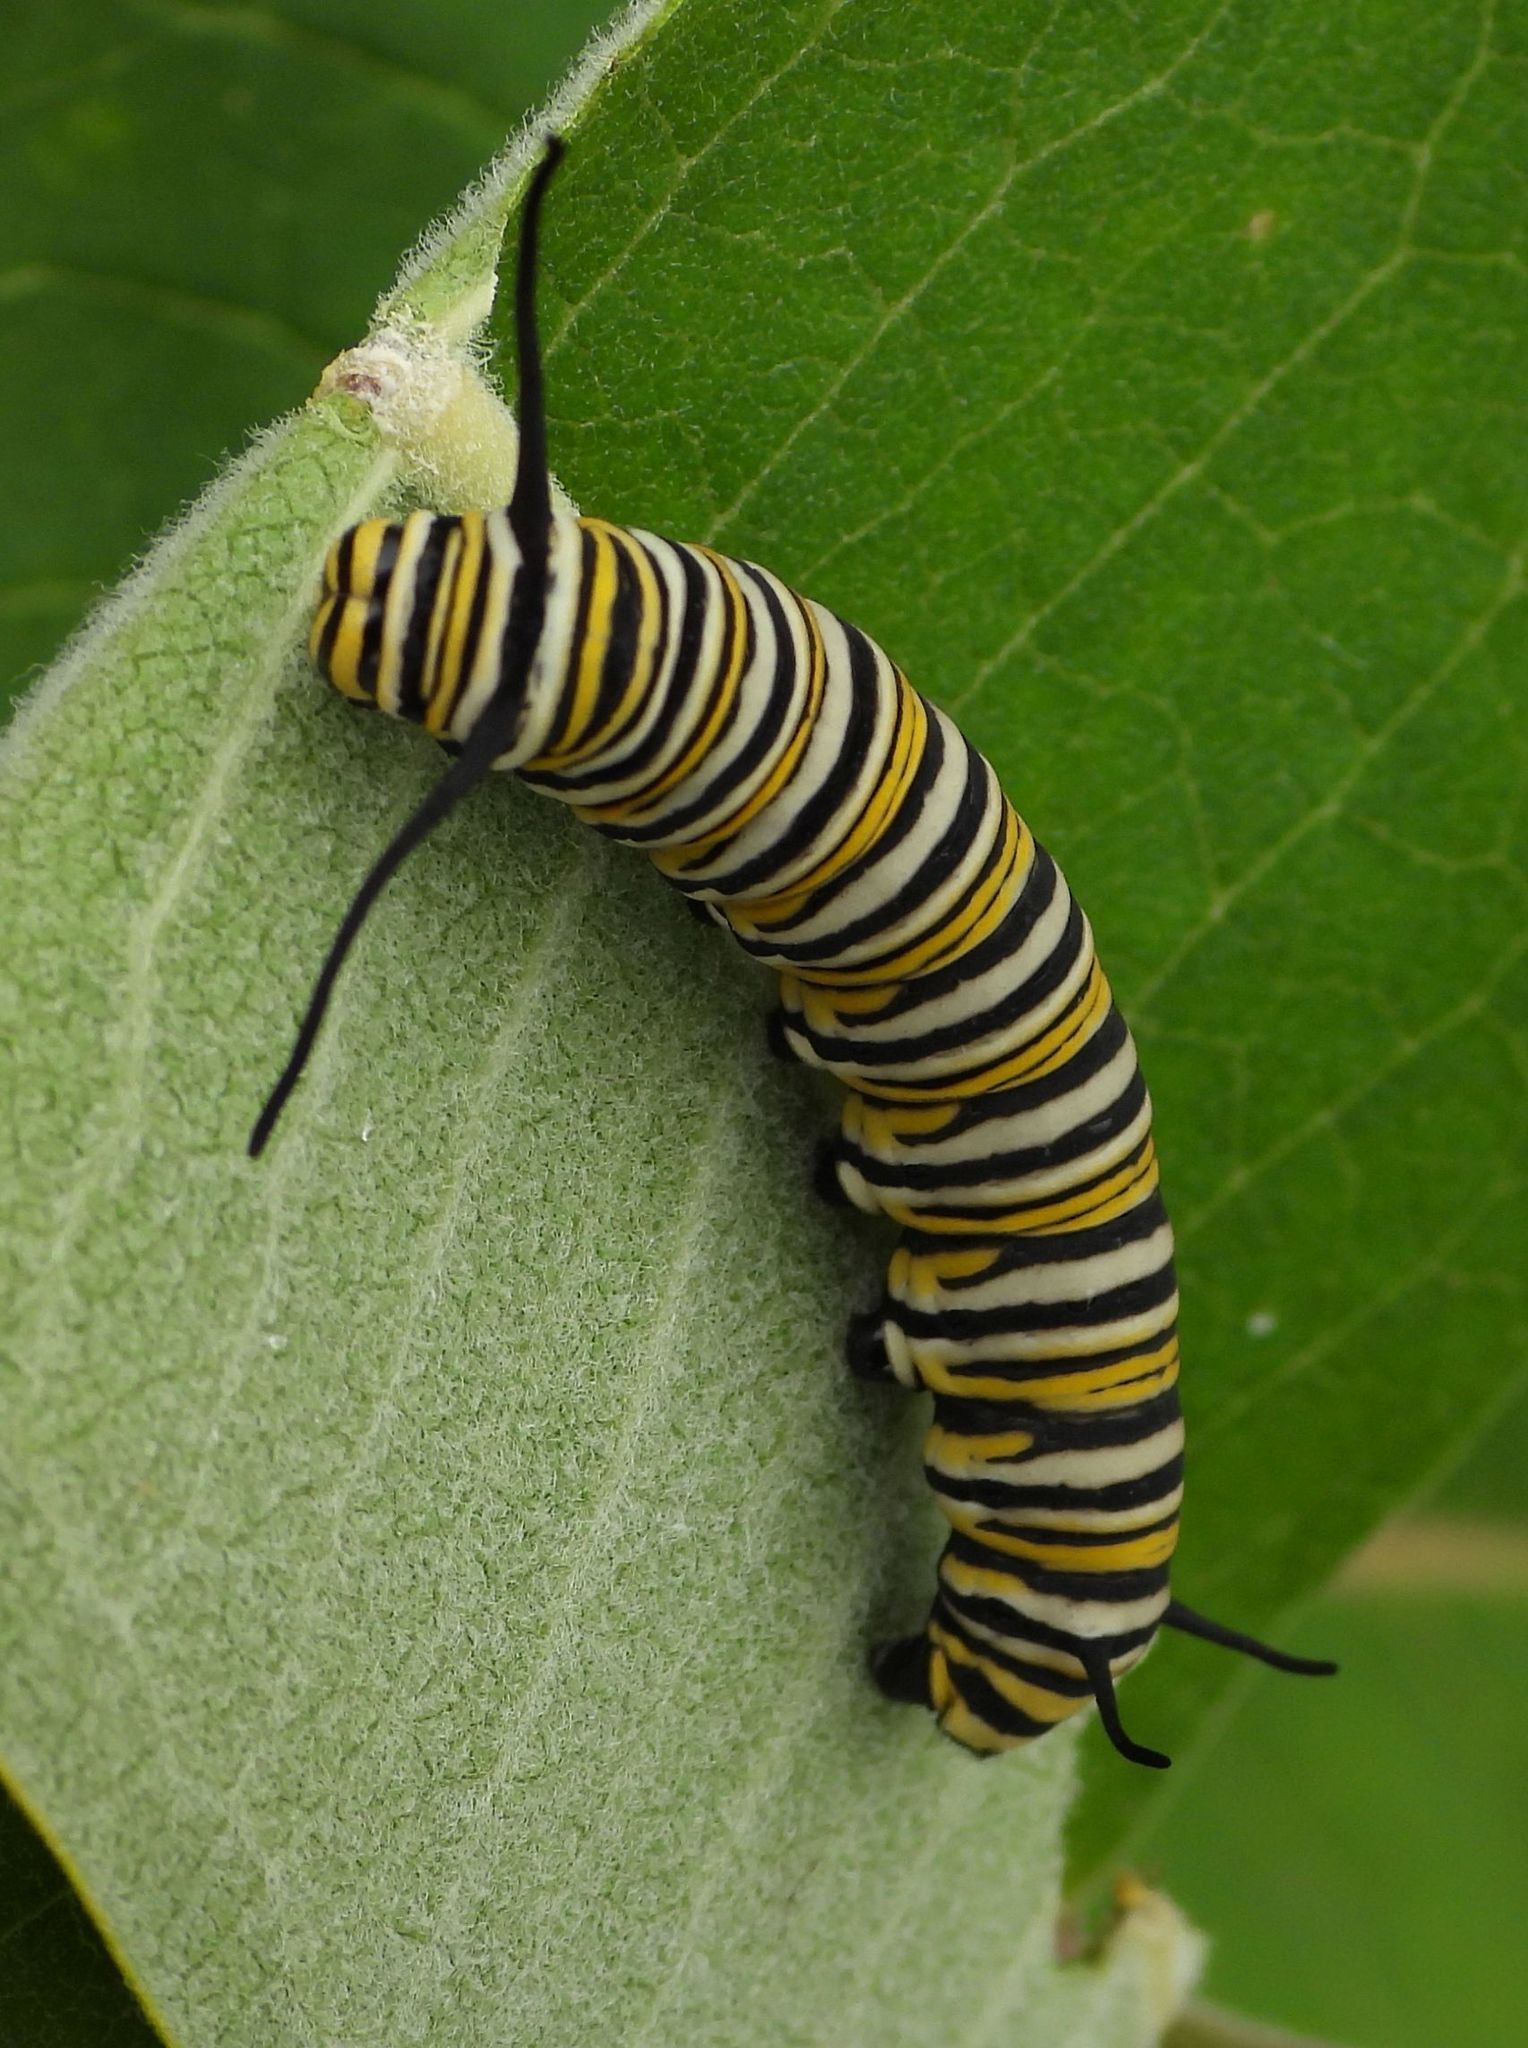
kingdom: Animalia
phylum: Arthropoda
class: Insecta
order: Lepidoptera
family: Nymphalidae
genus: Danaus
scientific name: Danaus plexippus
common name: Monarch
